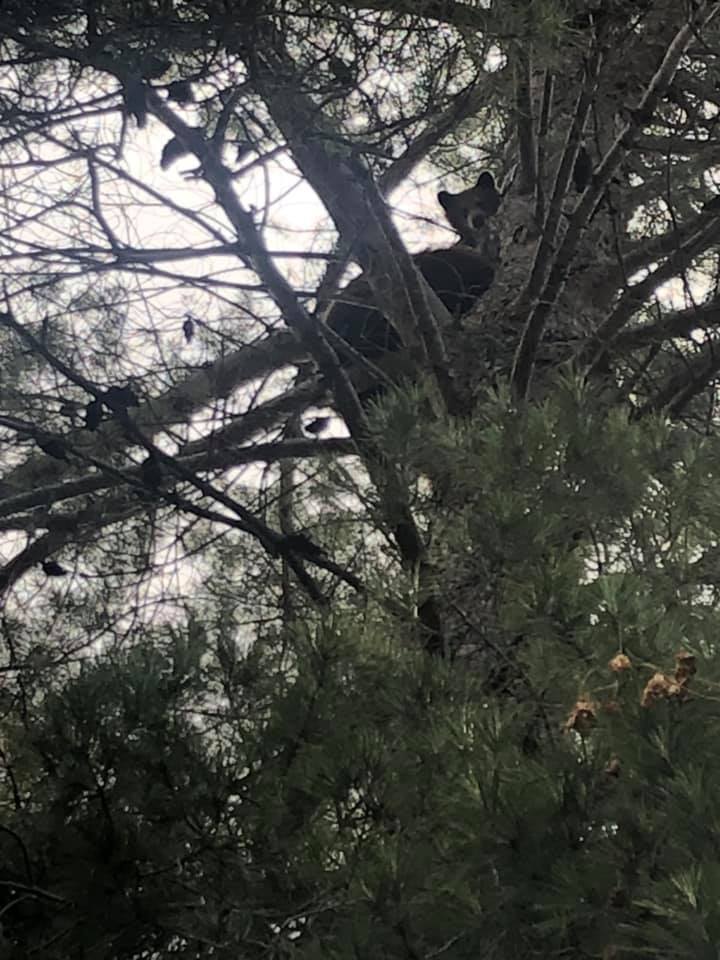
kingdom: Animalia
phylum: Chordata
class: Mammalia
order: Carnivora
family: Ursidae
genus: Ursus
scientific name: Ursus americanus
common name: American black bear
